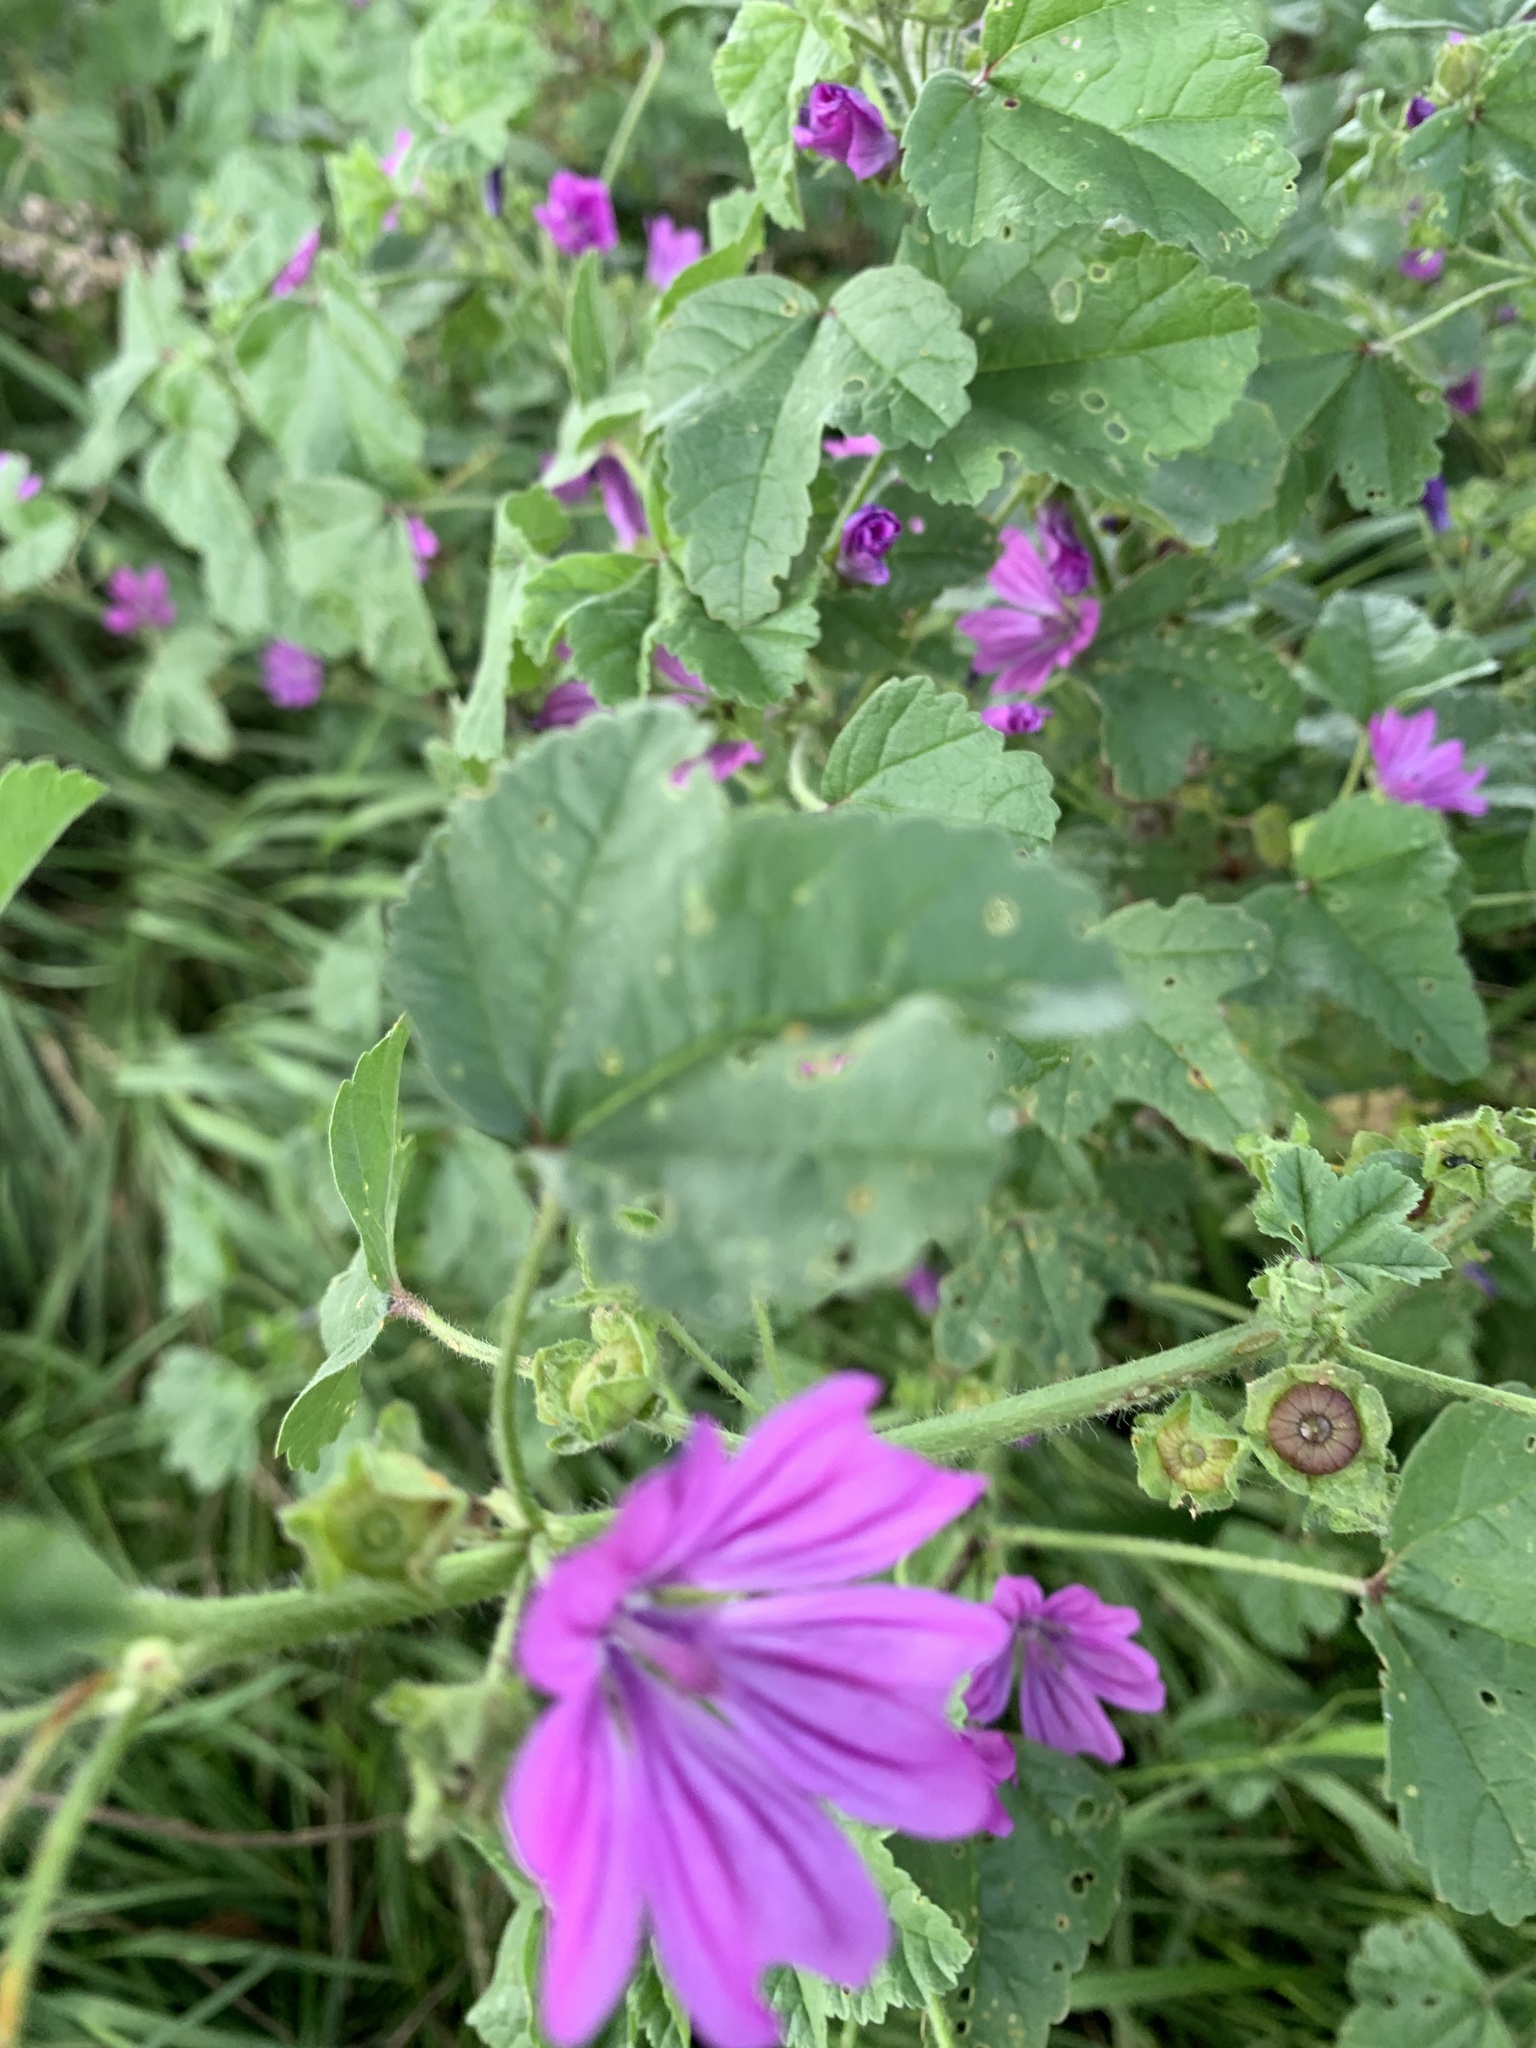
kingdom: Plantae
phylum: Tracheophyta
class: Magnoliopsida
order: Malvales
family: Malvaceae
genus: Malva
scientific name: Malva sylvestris
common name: Common mallow
